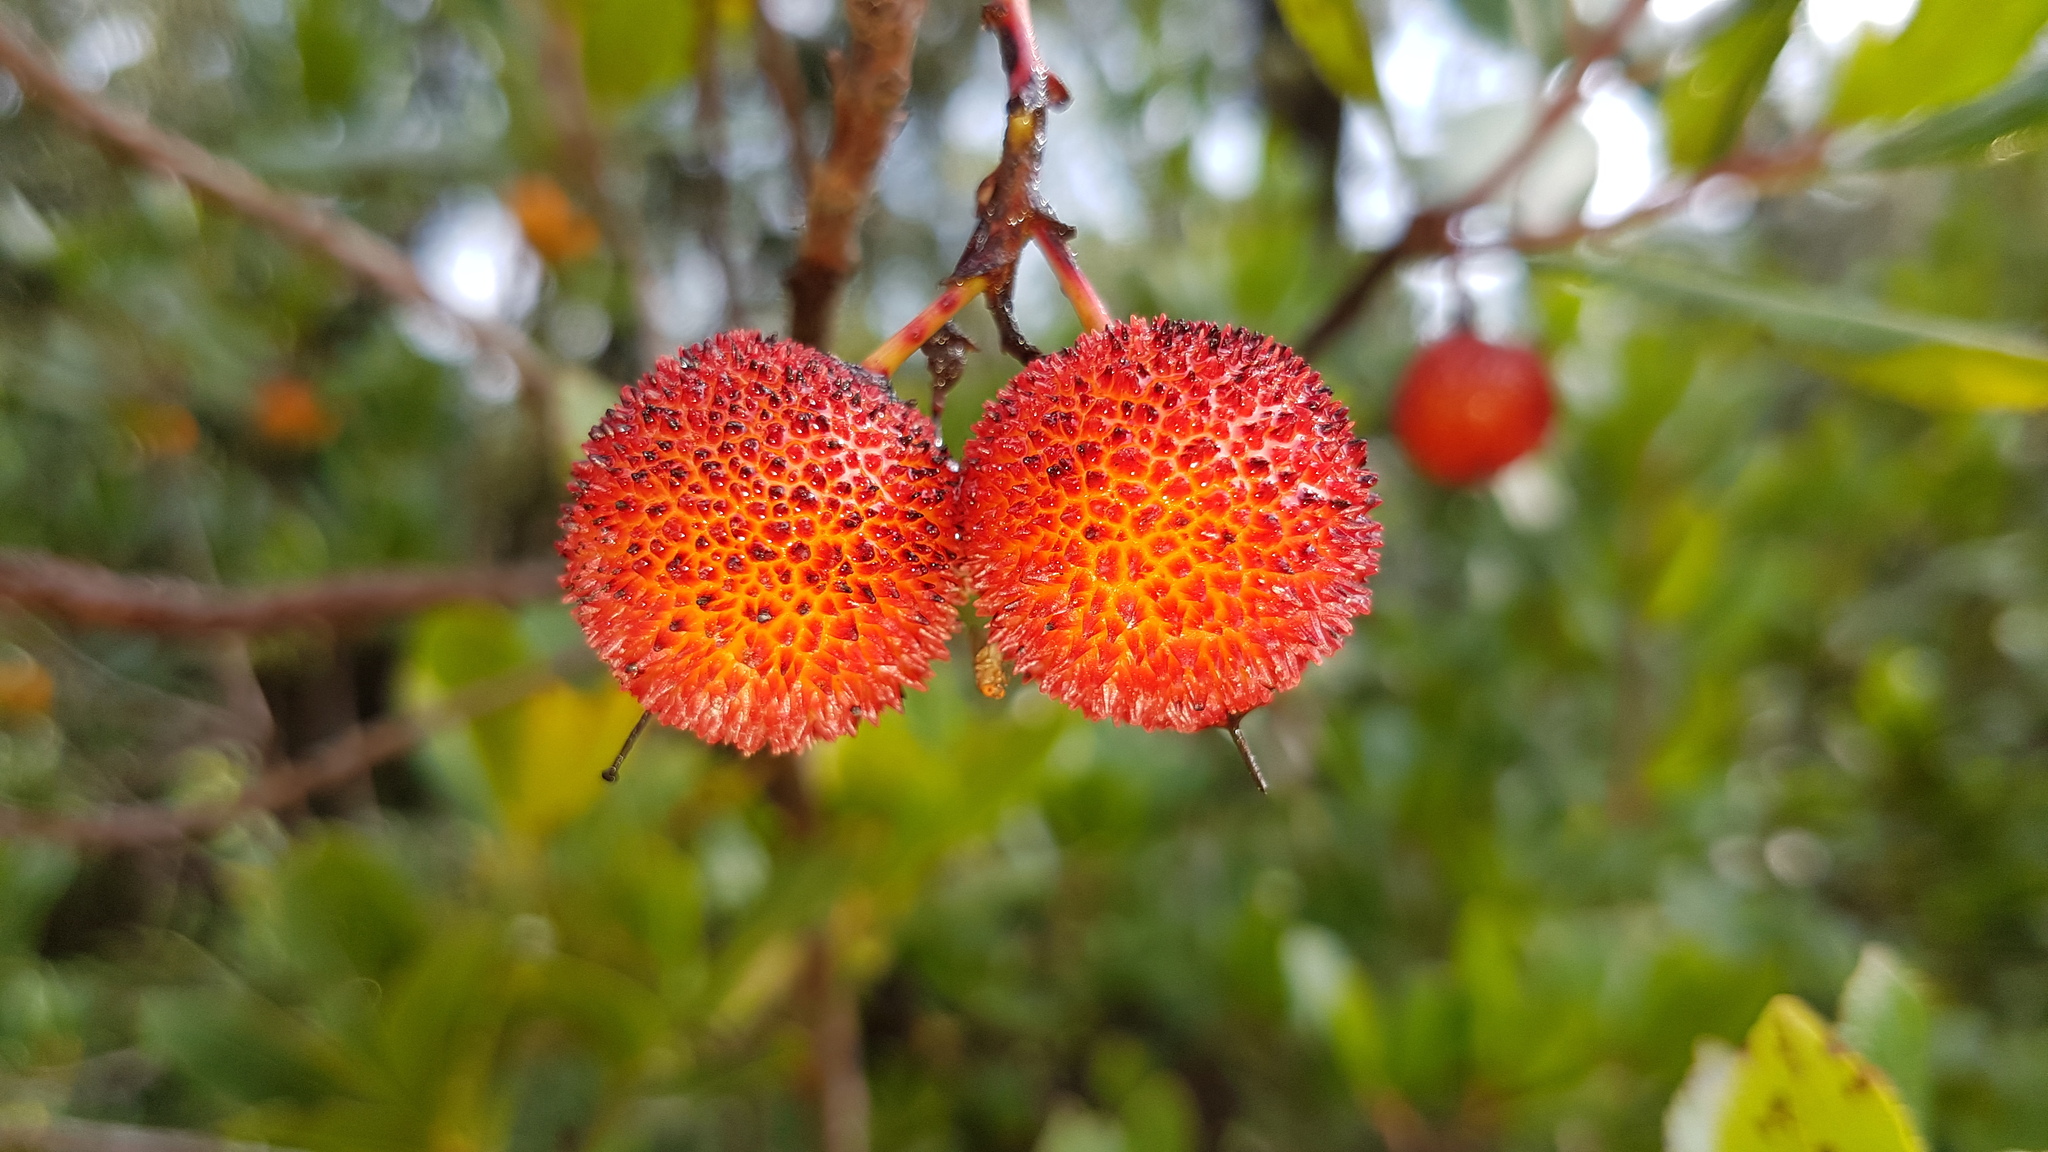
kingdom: Plantae
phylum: Tracheophyta
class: Magnoliopsida
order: Ericales
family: Ericaceae
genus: Arbutus
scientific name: Arbutus unedo
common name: Strawberry-tree
